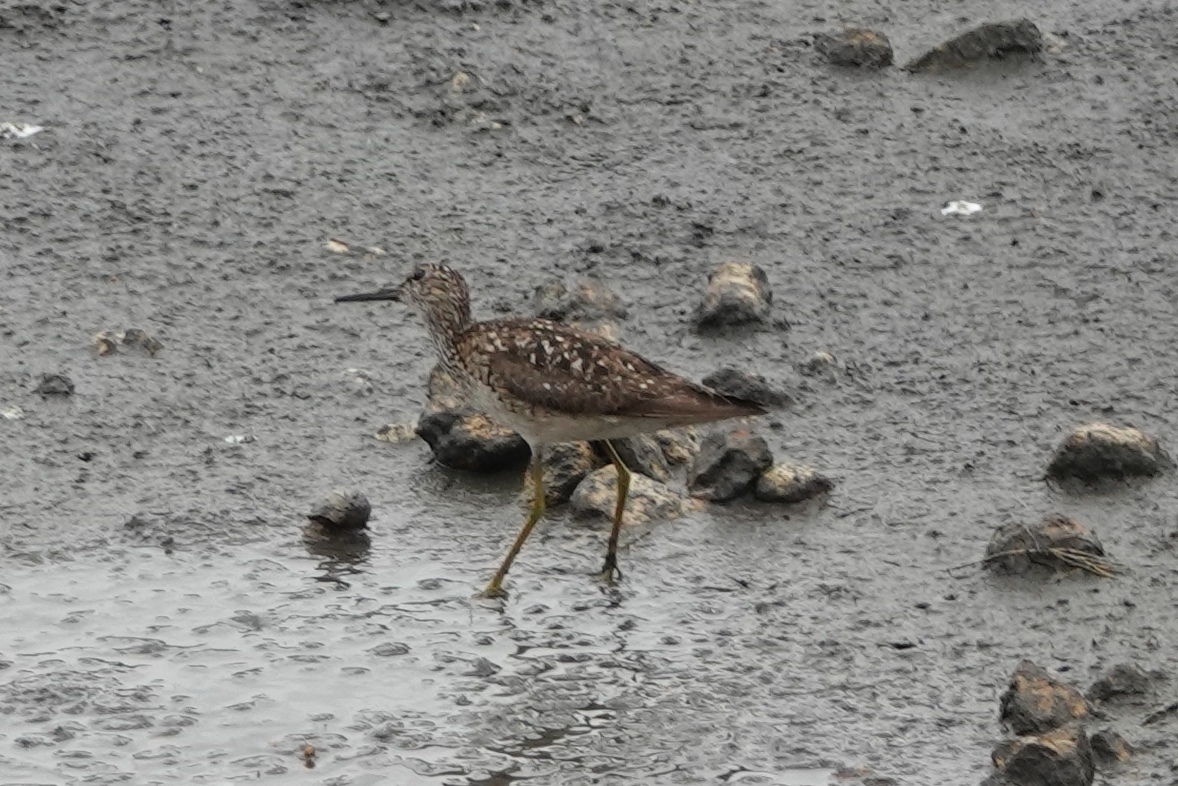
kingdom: Animalia
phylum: Chordata
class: Aves
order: Charadriiformes
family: Scolopacidae
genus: Tringa
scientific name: Tringa glareola
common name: Wood sandpiper
